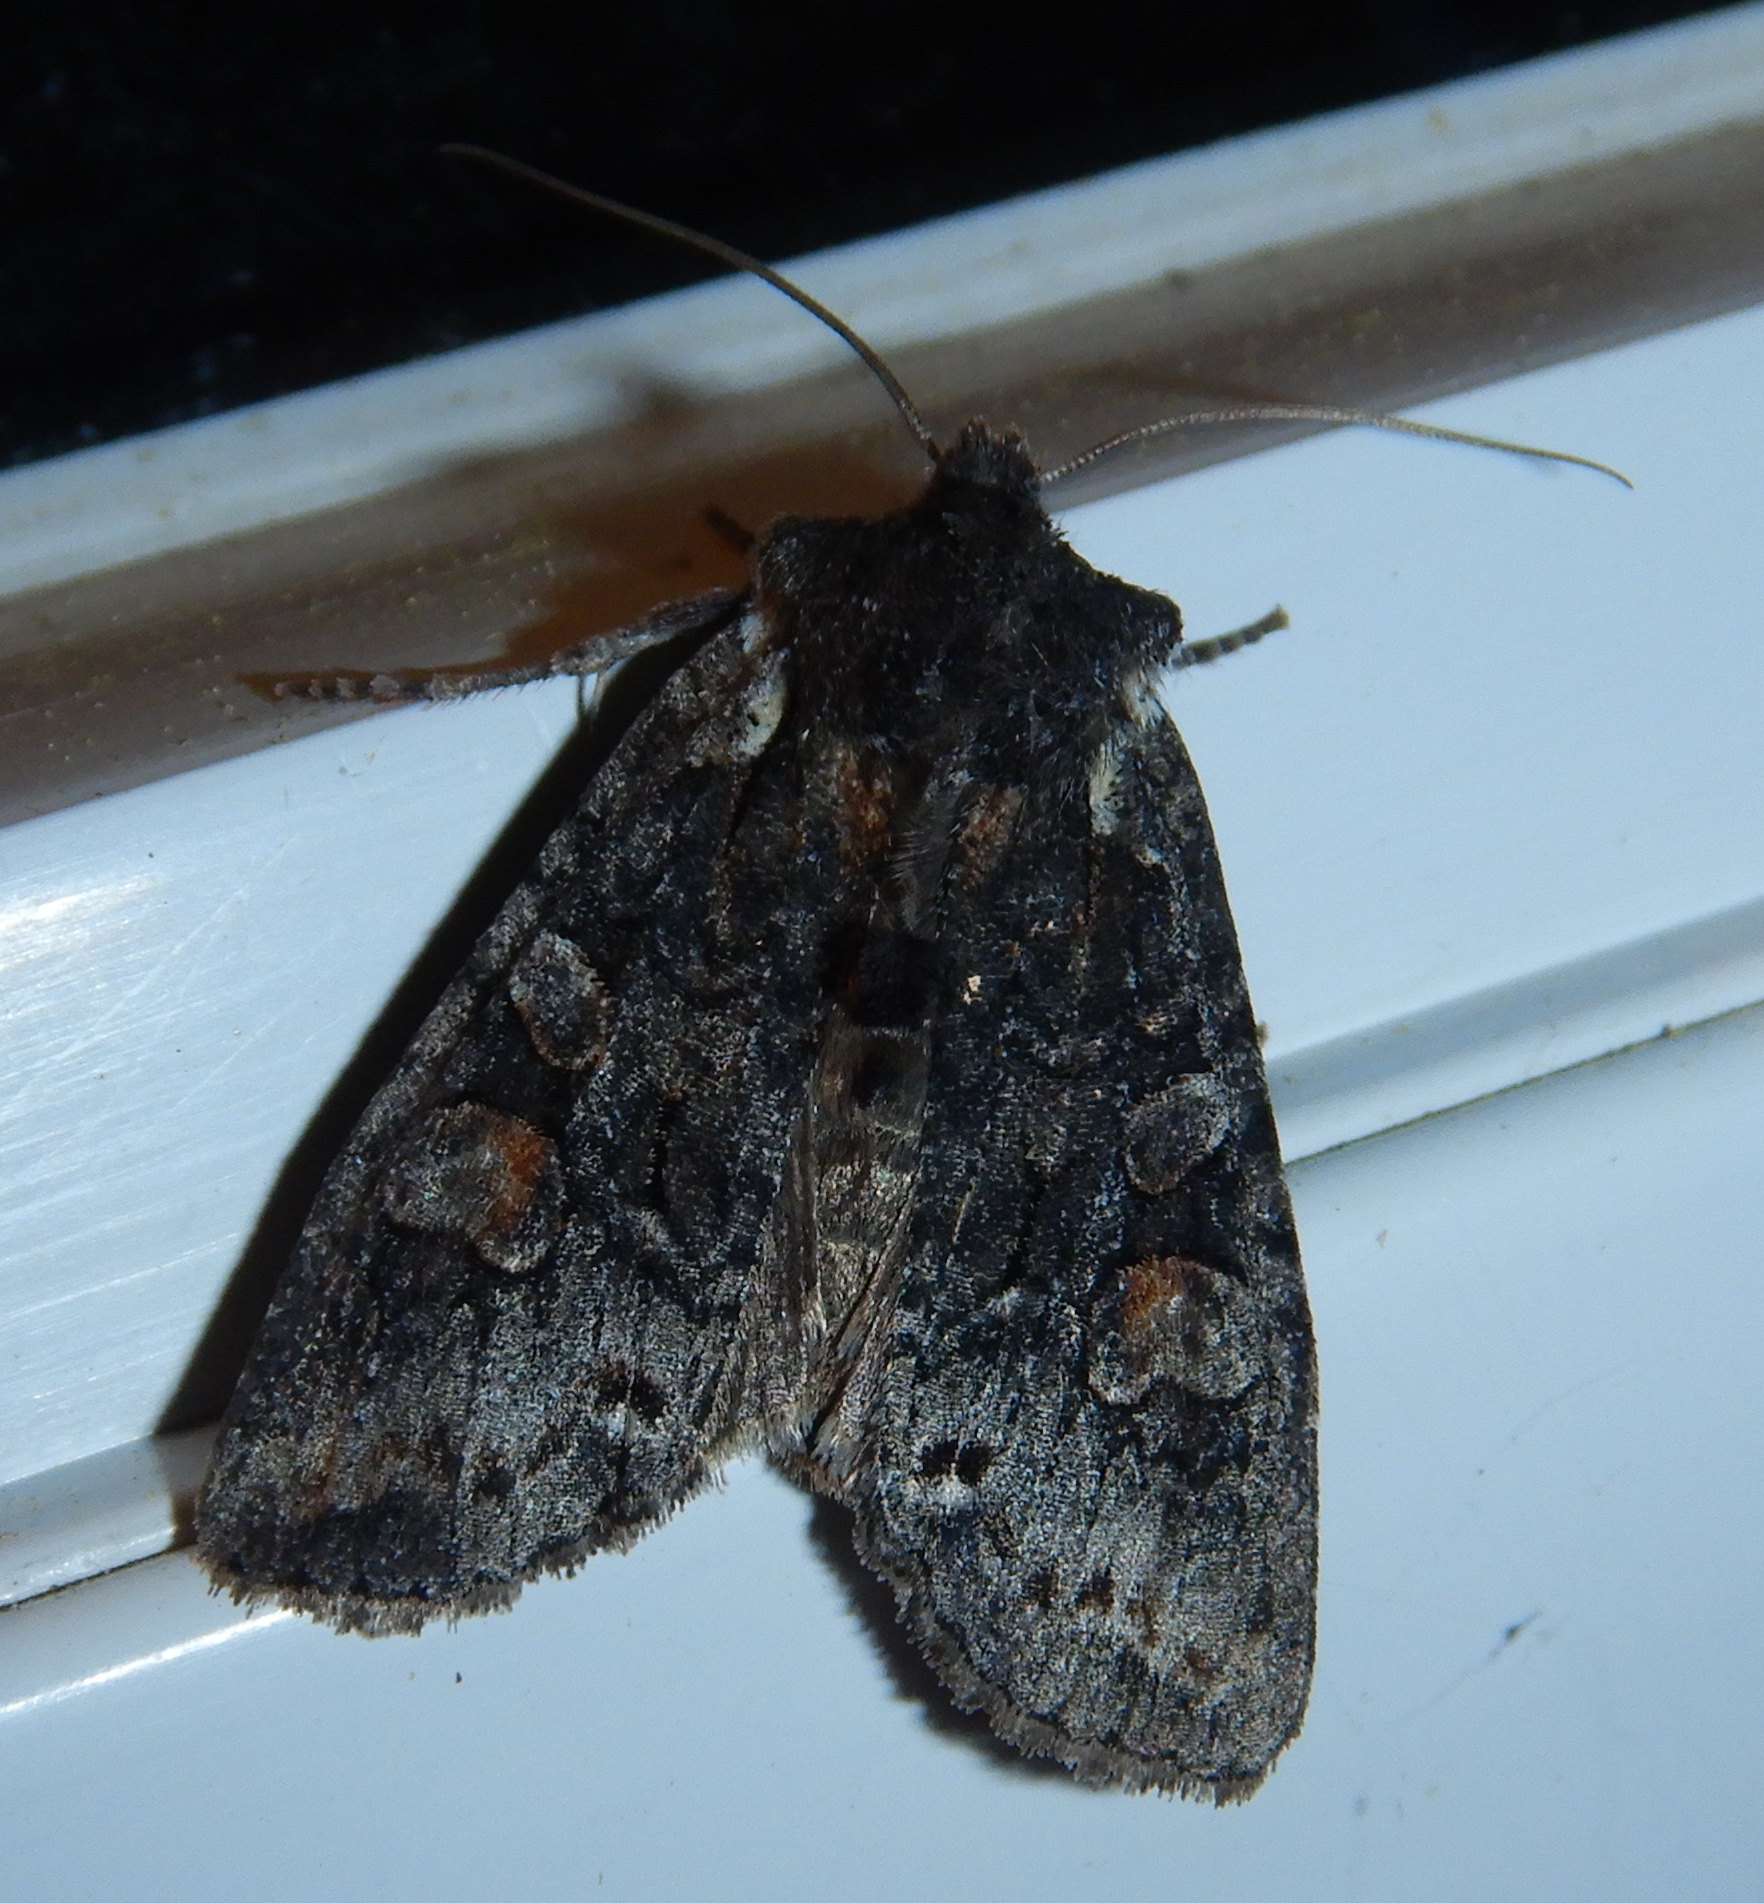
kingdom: Animalia
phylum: Arthropoda
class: Insecta
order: Lepidoptera
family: Noctuidae
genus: Lithophane
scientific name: Lithophane pexata
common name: Plush-naped pinion moth
